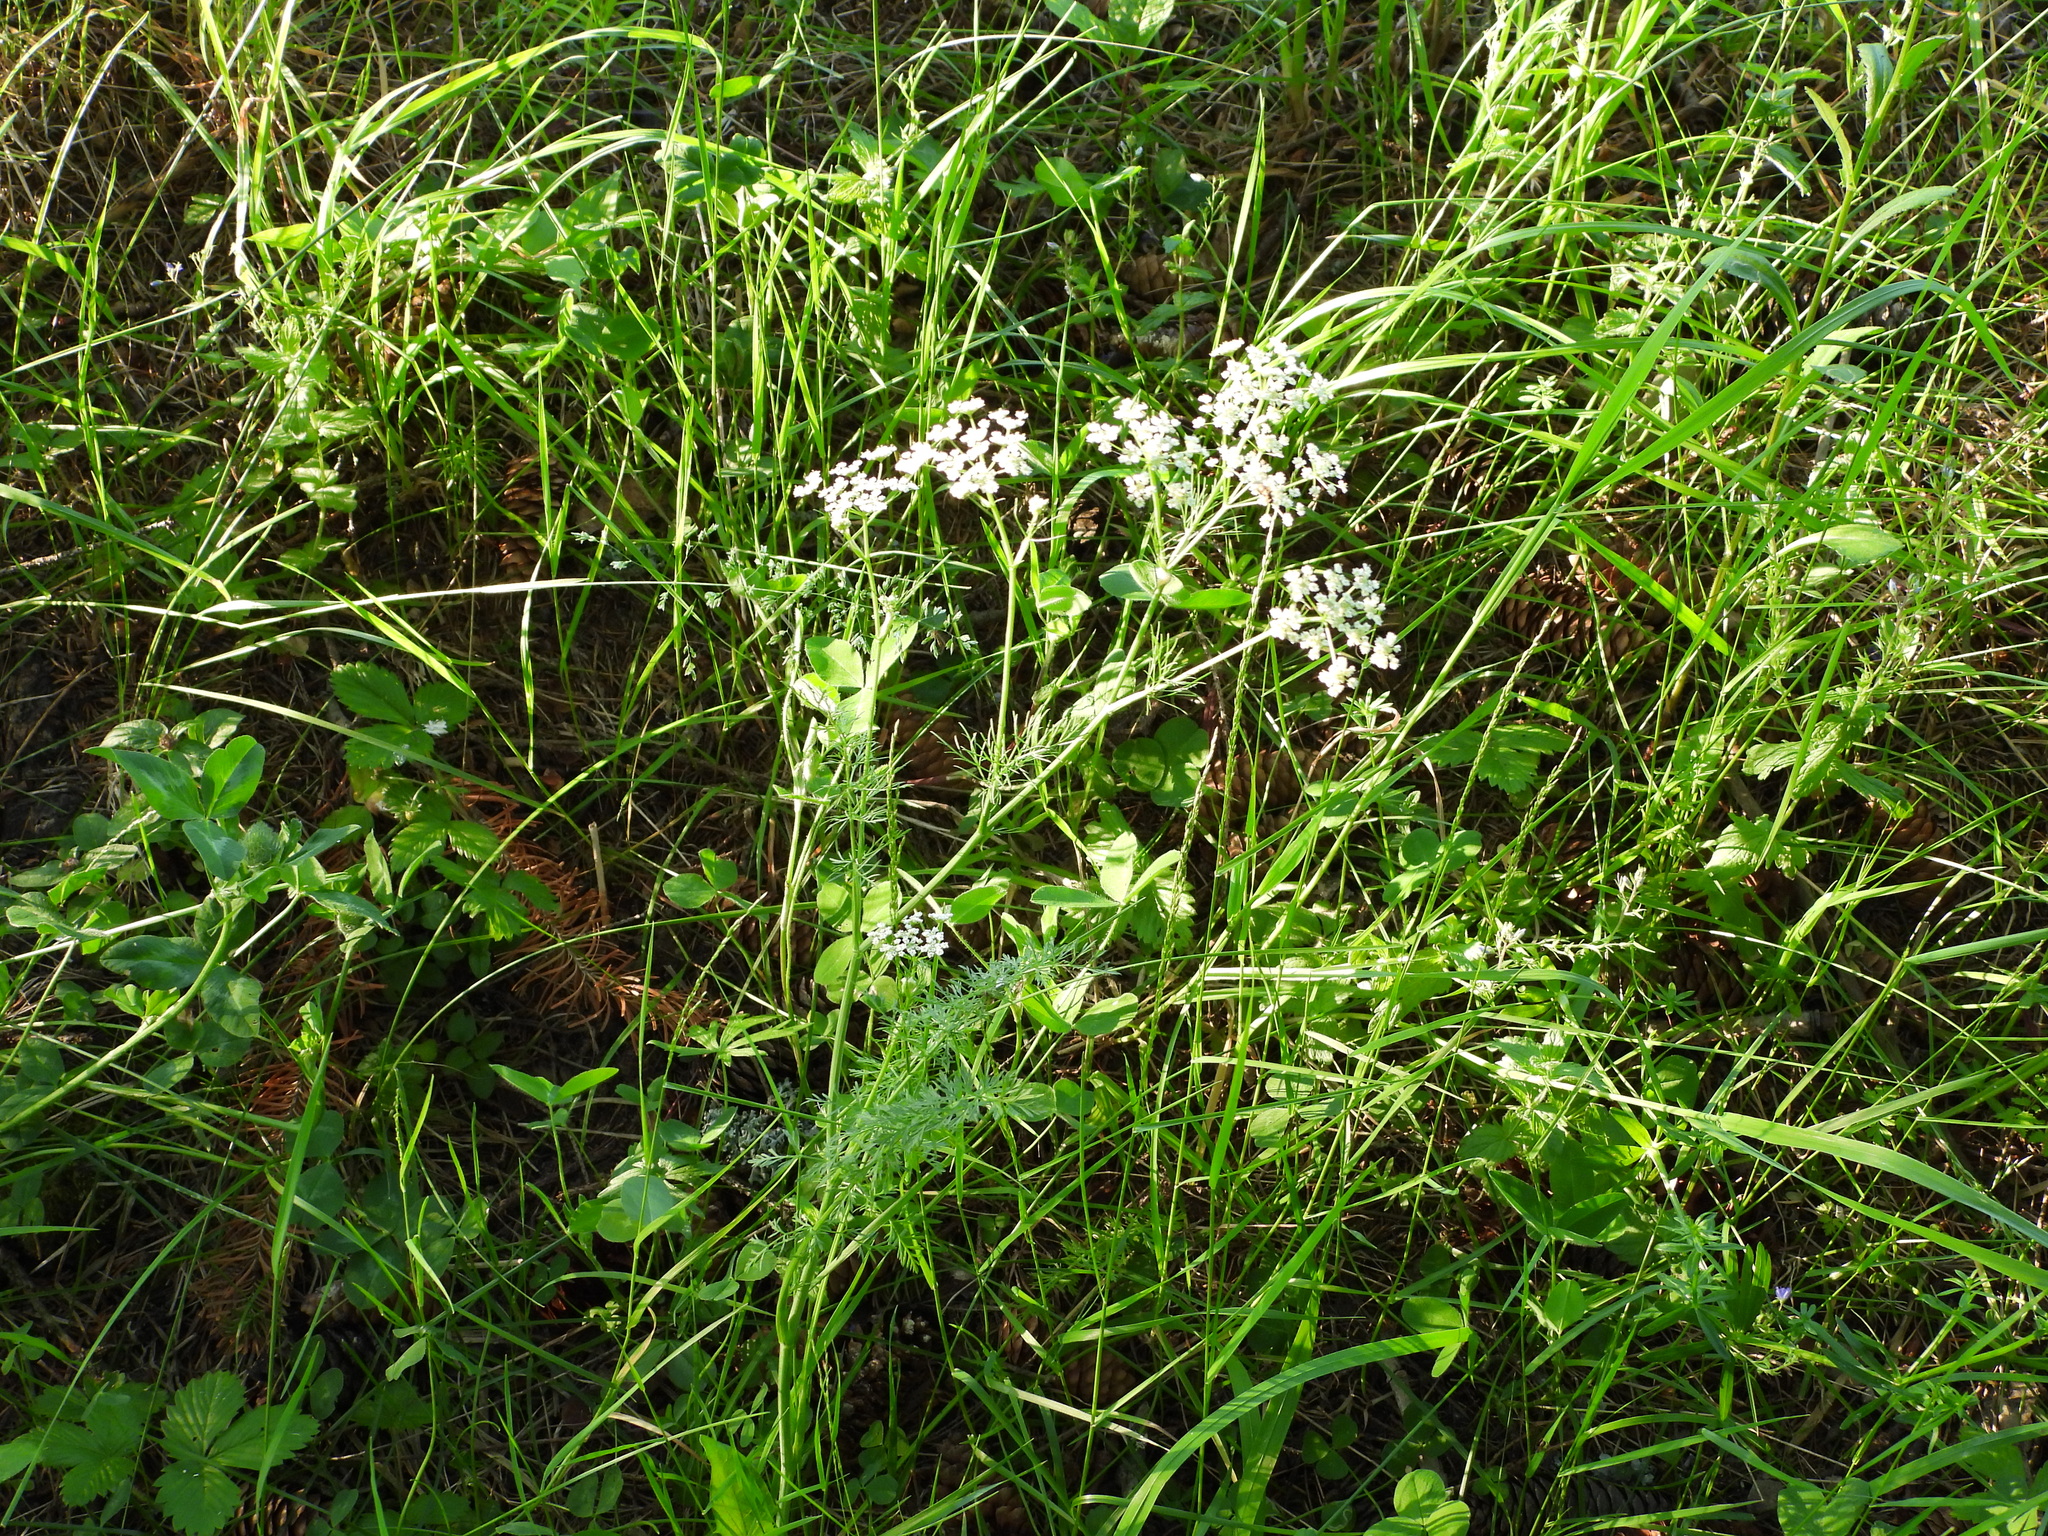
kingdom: Plantae
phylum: Tracheophyta
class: Magnoliopsida
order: Apiales
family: Apiaceae
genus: Carum
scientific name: Carum carvi
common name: Caraway
